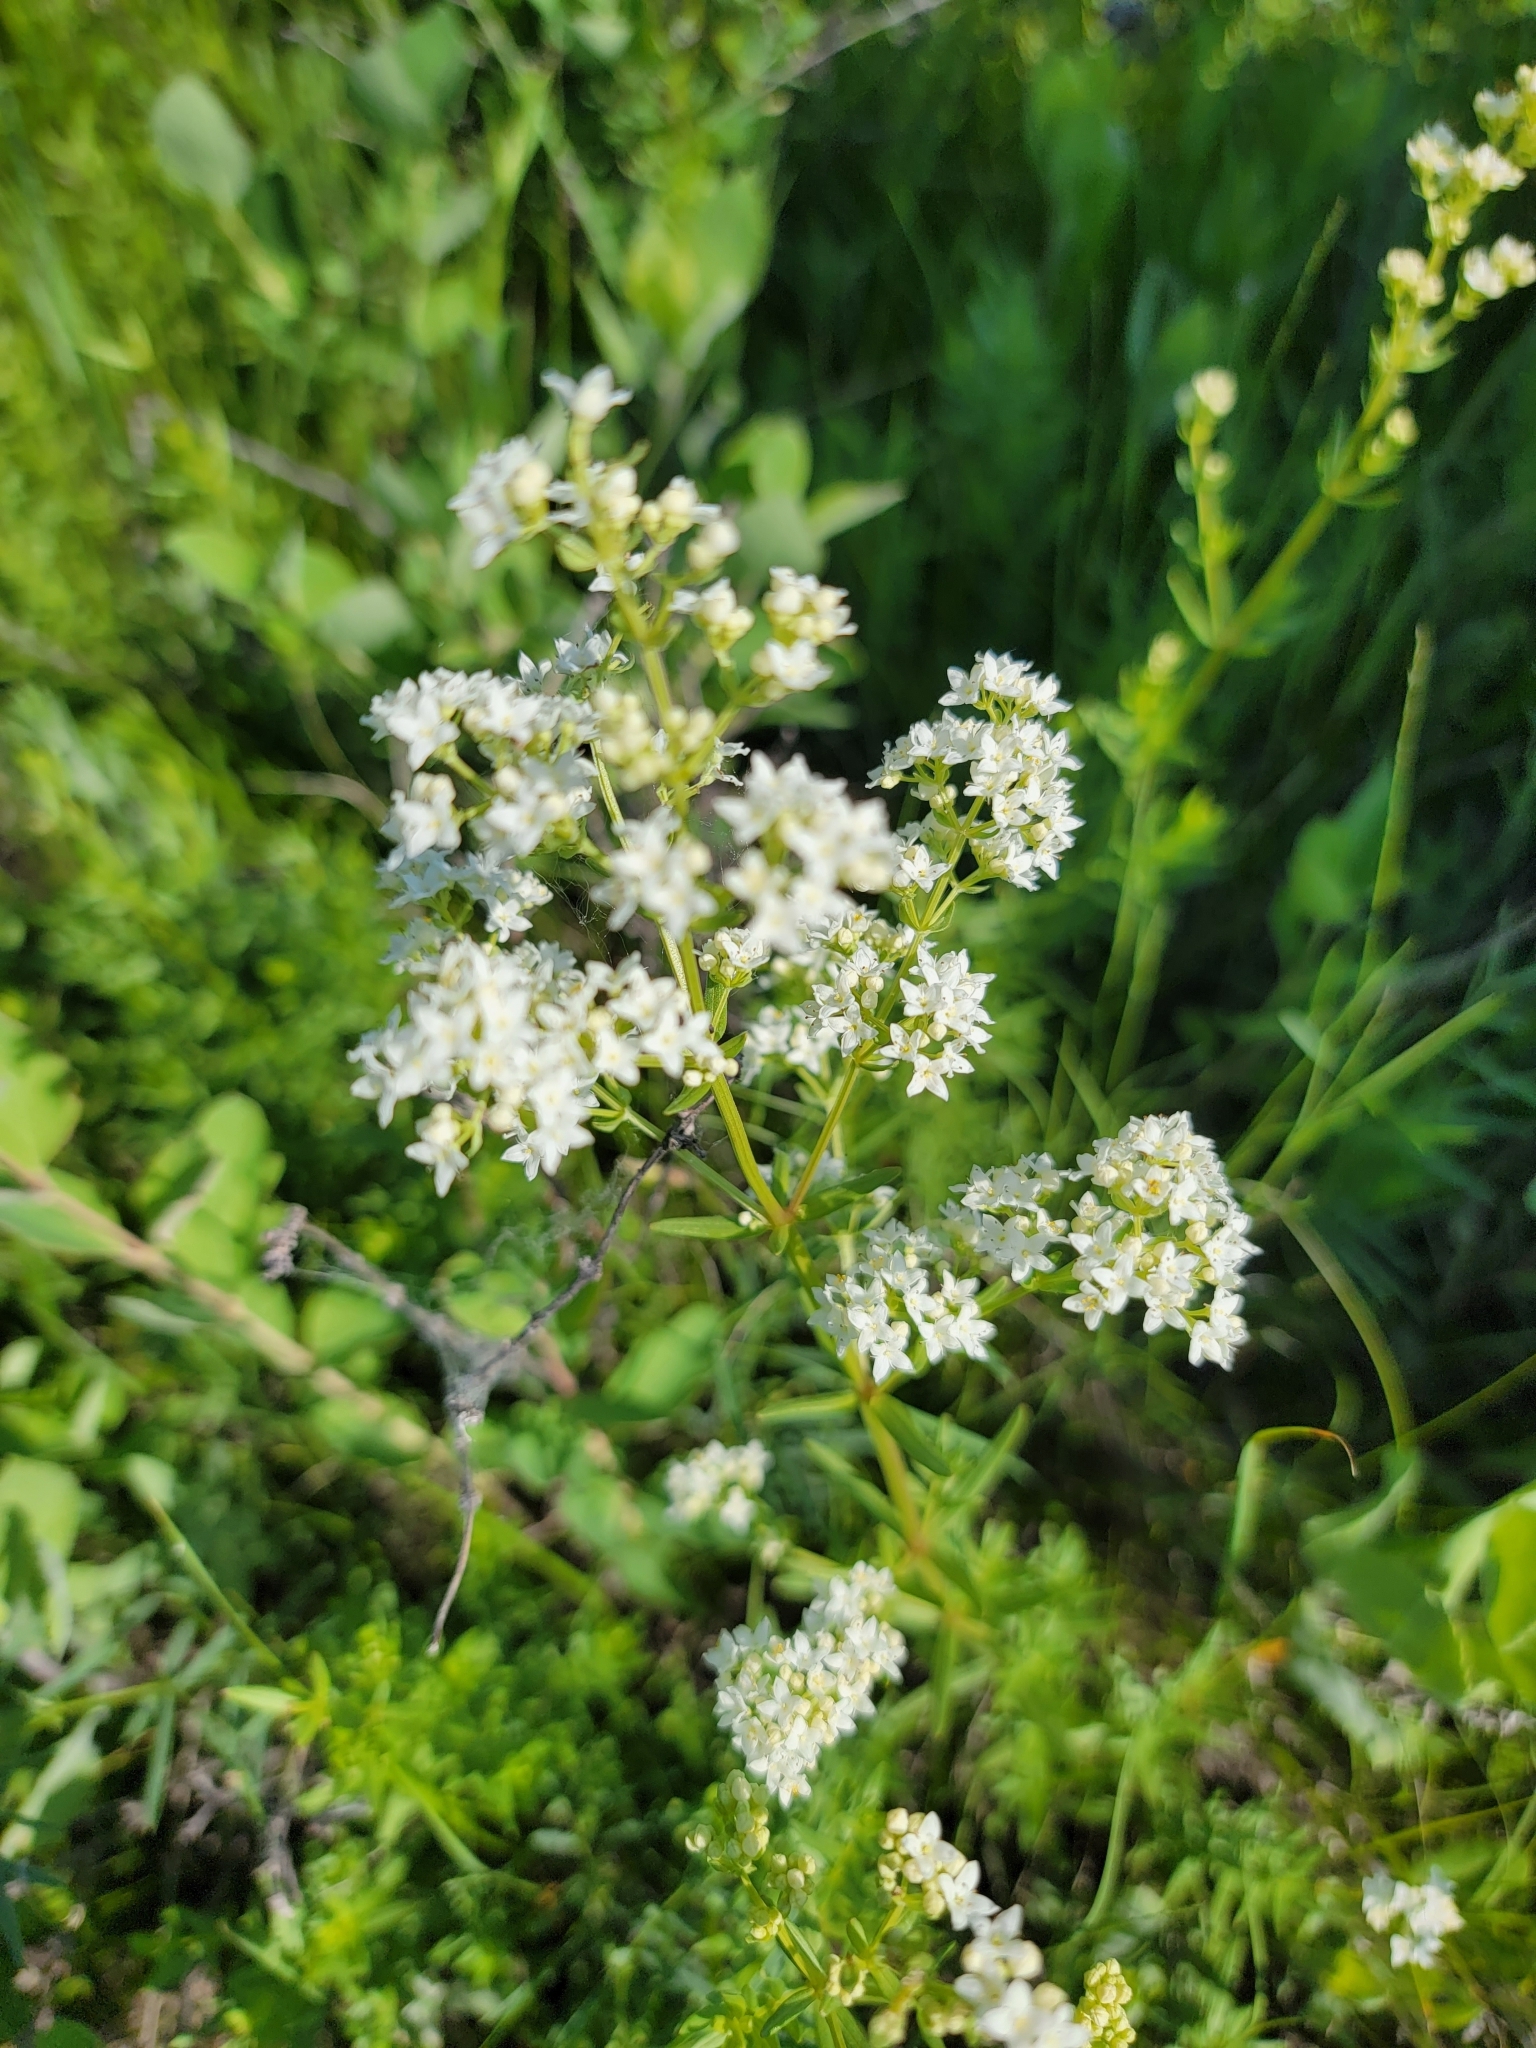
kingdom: Plantae
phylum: Tracheophyta
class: Magnoliopsida
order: Gentianales
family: Rubiaceae
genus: Galium
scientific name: Galium boreale
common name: Northern bedstraw
